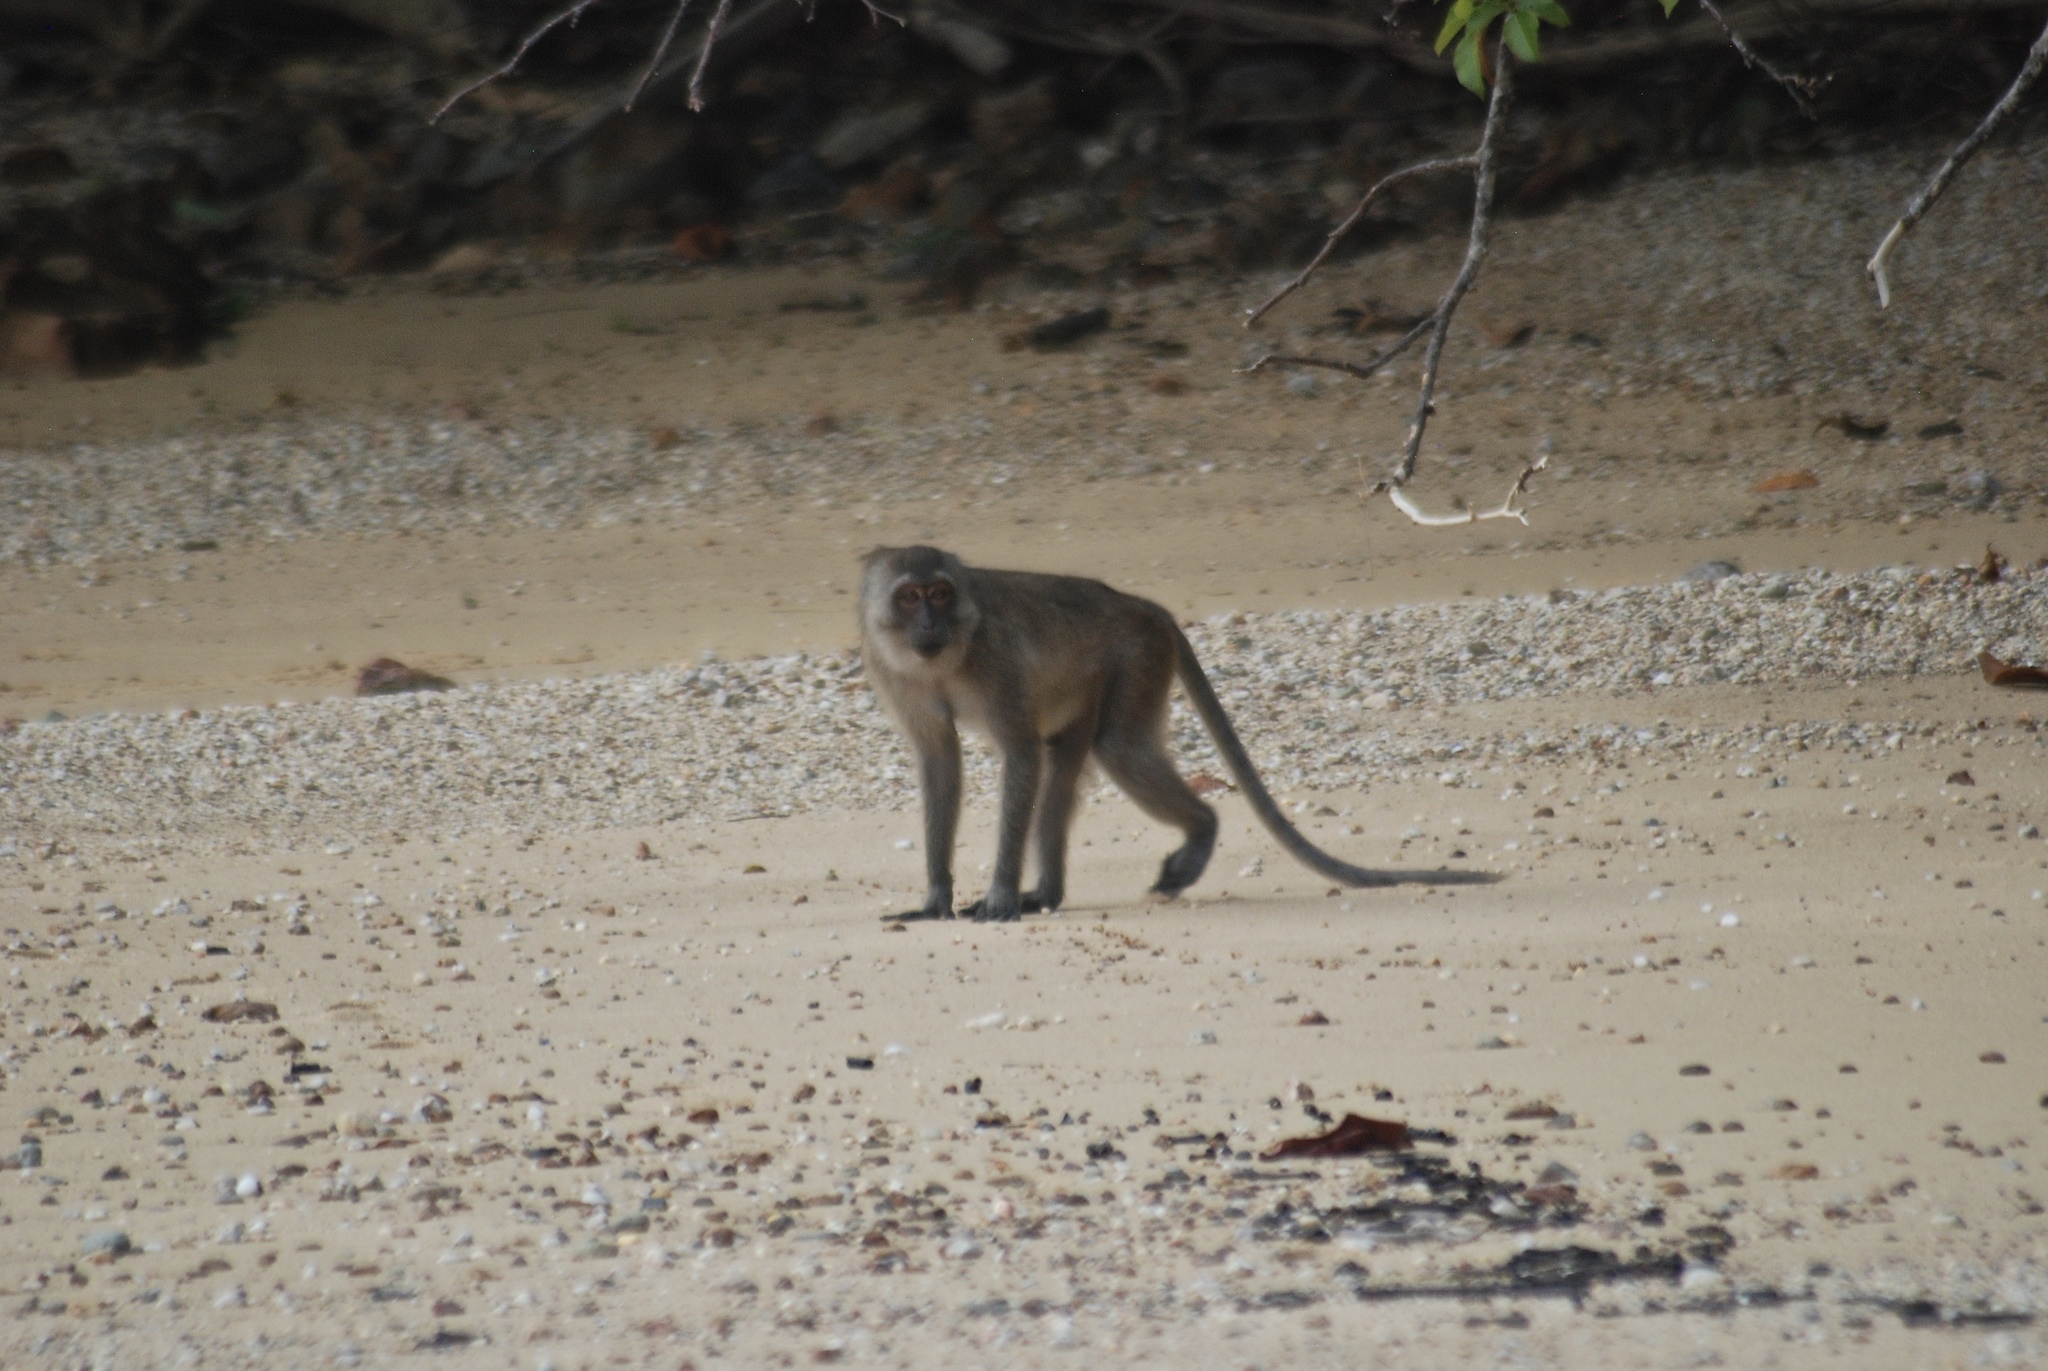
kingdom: Animalia
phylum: Chordata
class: Mammalia
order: Primates
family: Cercopithecidae
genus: Macaca
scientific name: Macaca fascicularis
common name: Crab-eating macaque
